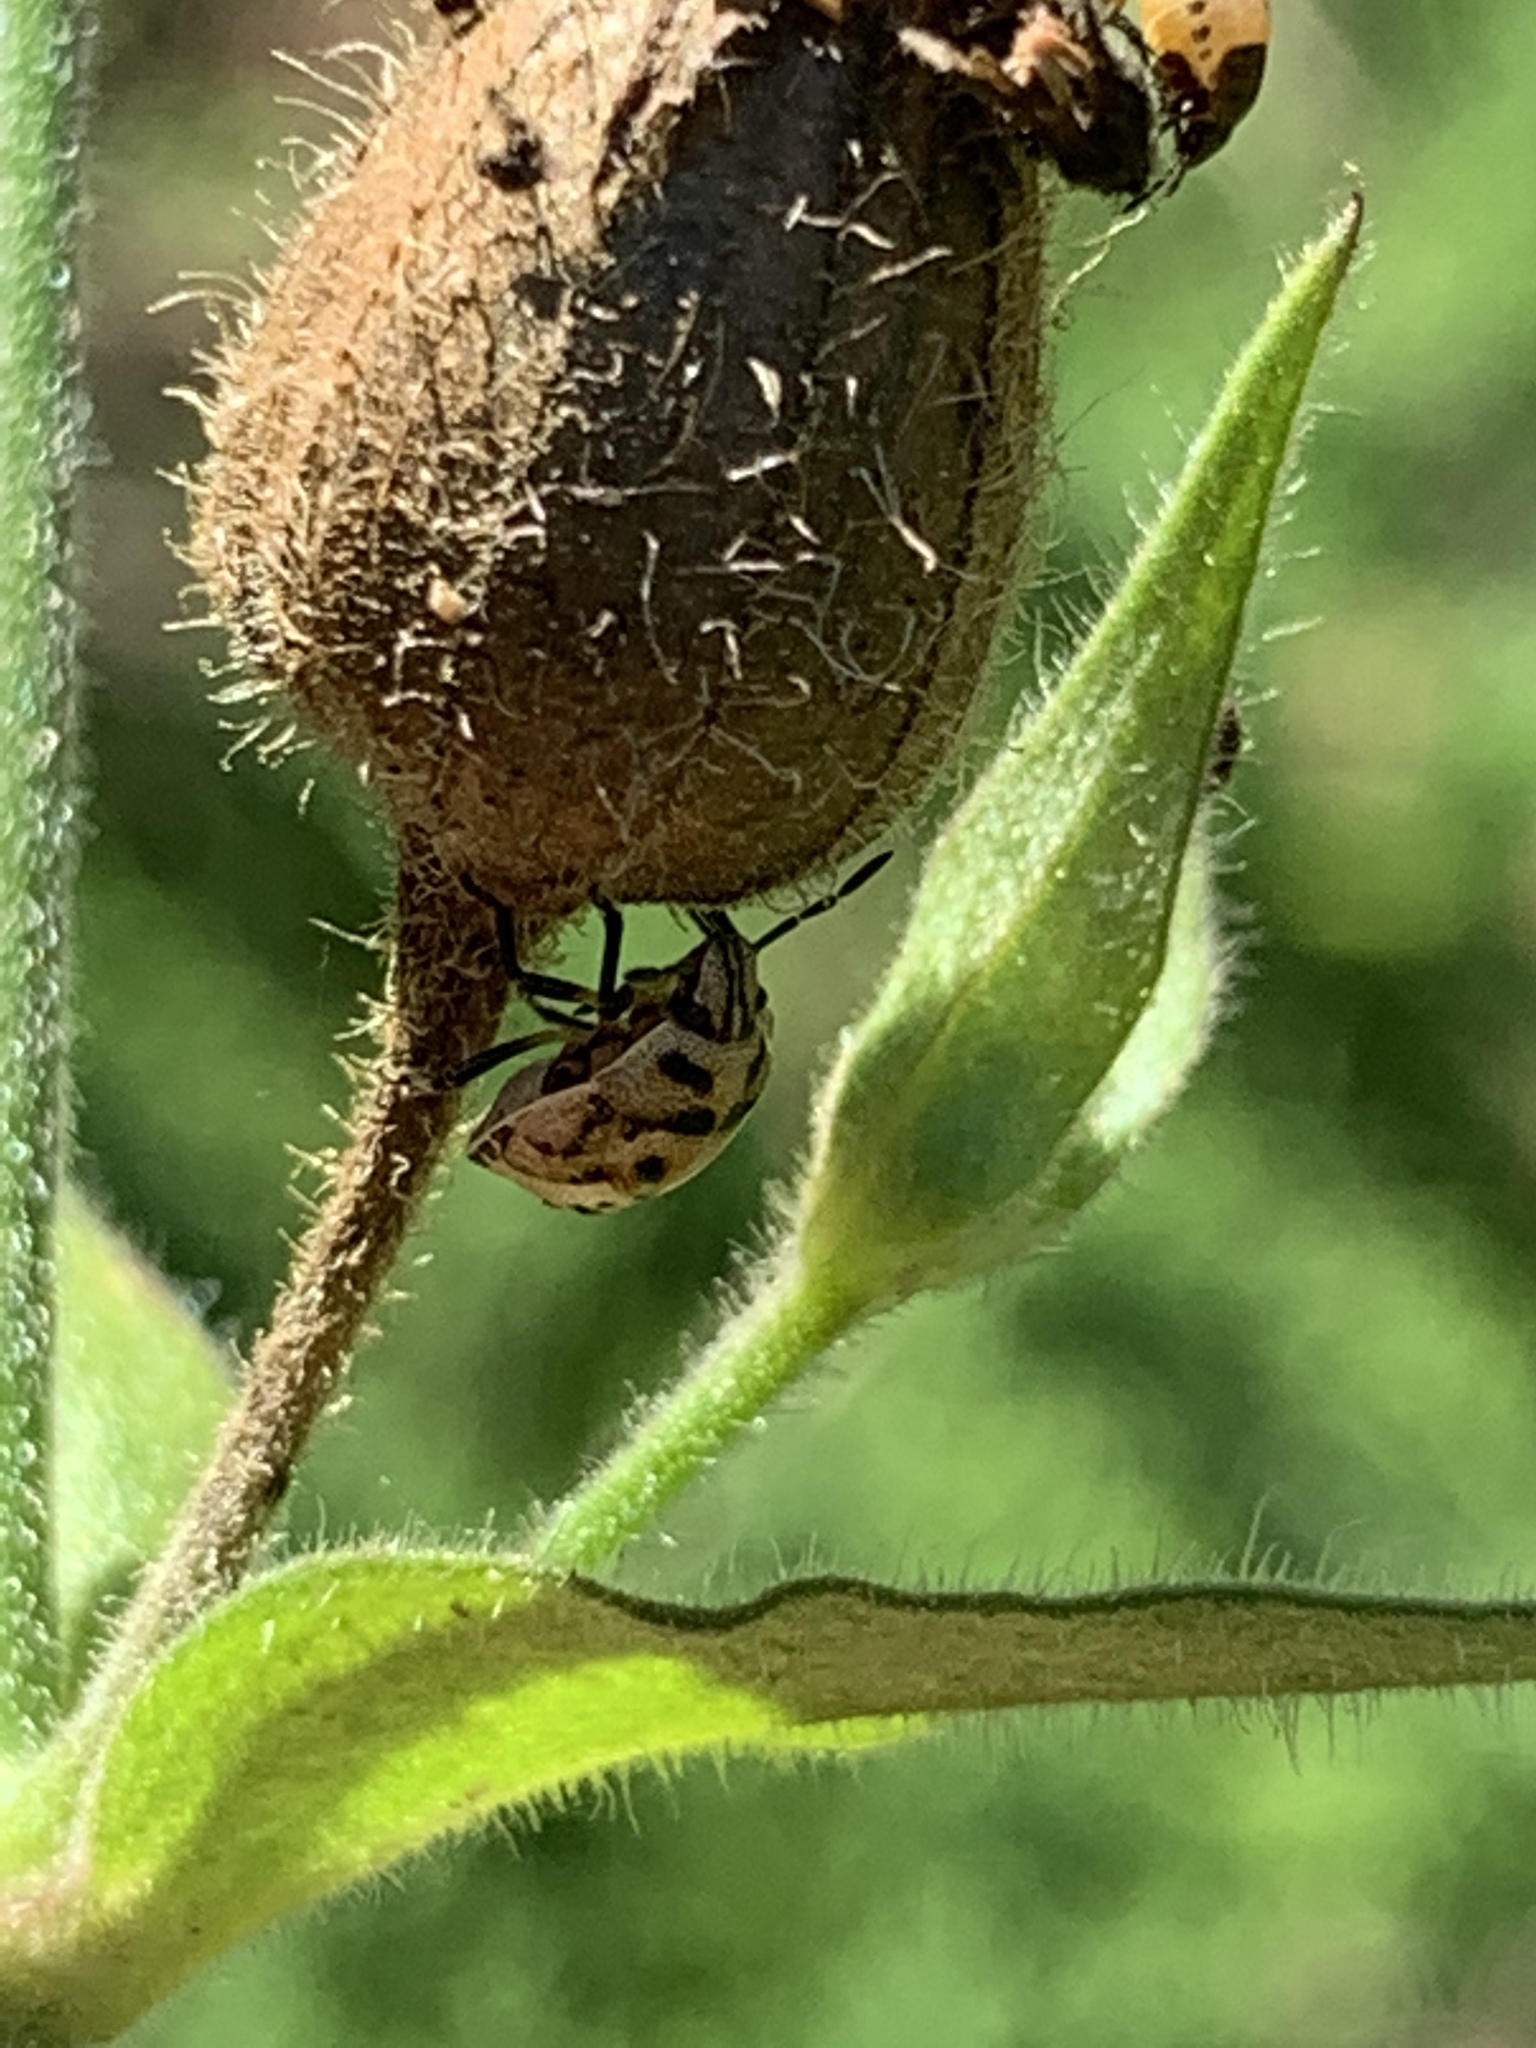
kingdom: Animalia
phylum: Arthropoda
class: Insecta
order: Hemiptera
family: Pentatomidae
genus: Cosmopepla
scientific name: Cosmopepla lintneriana
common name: Twice-stabbed stink bug
